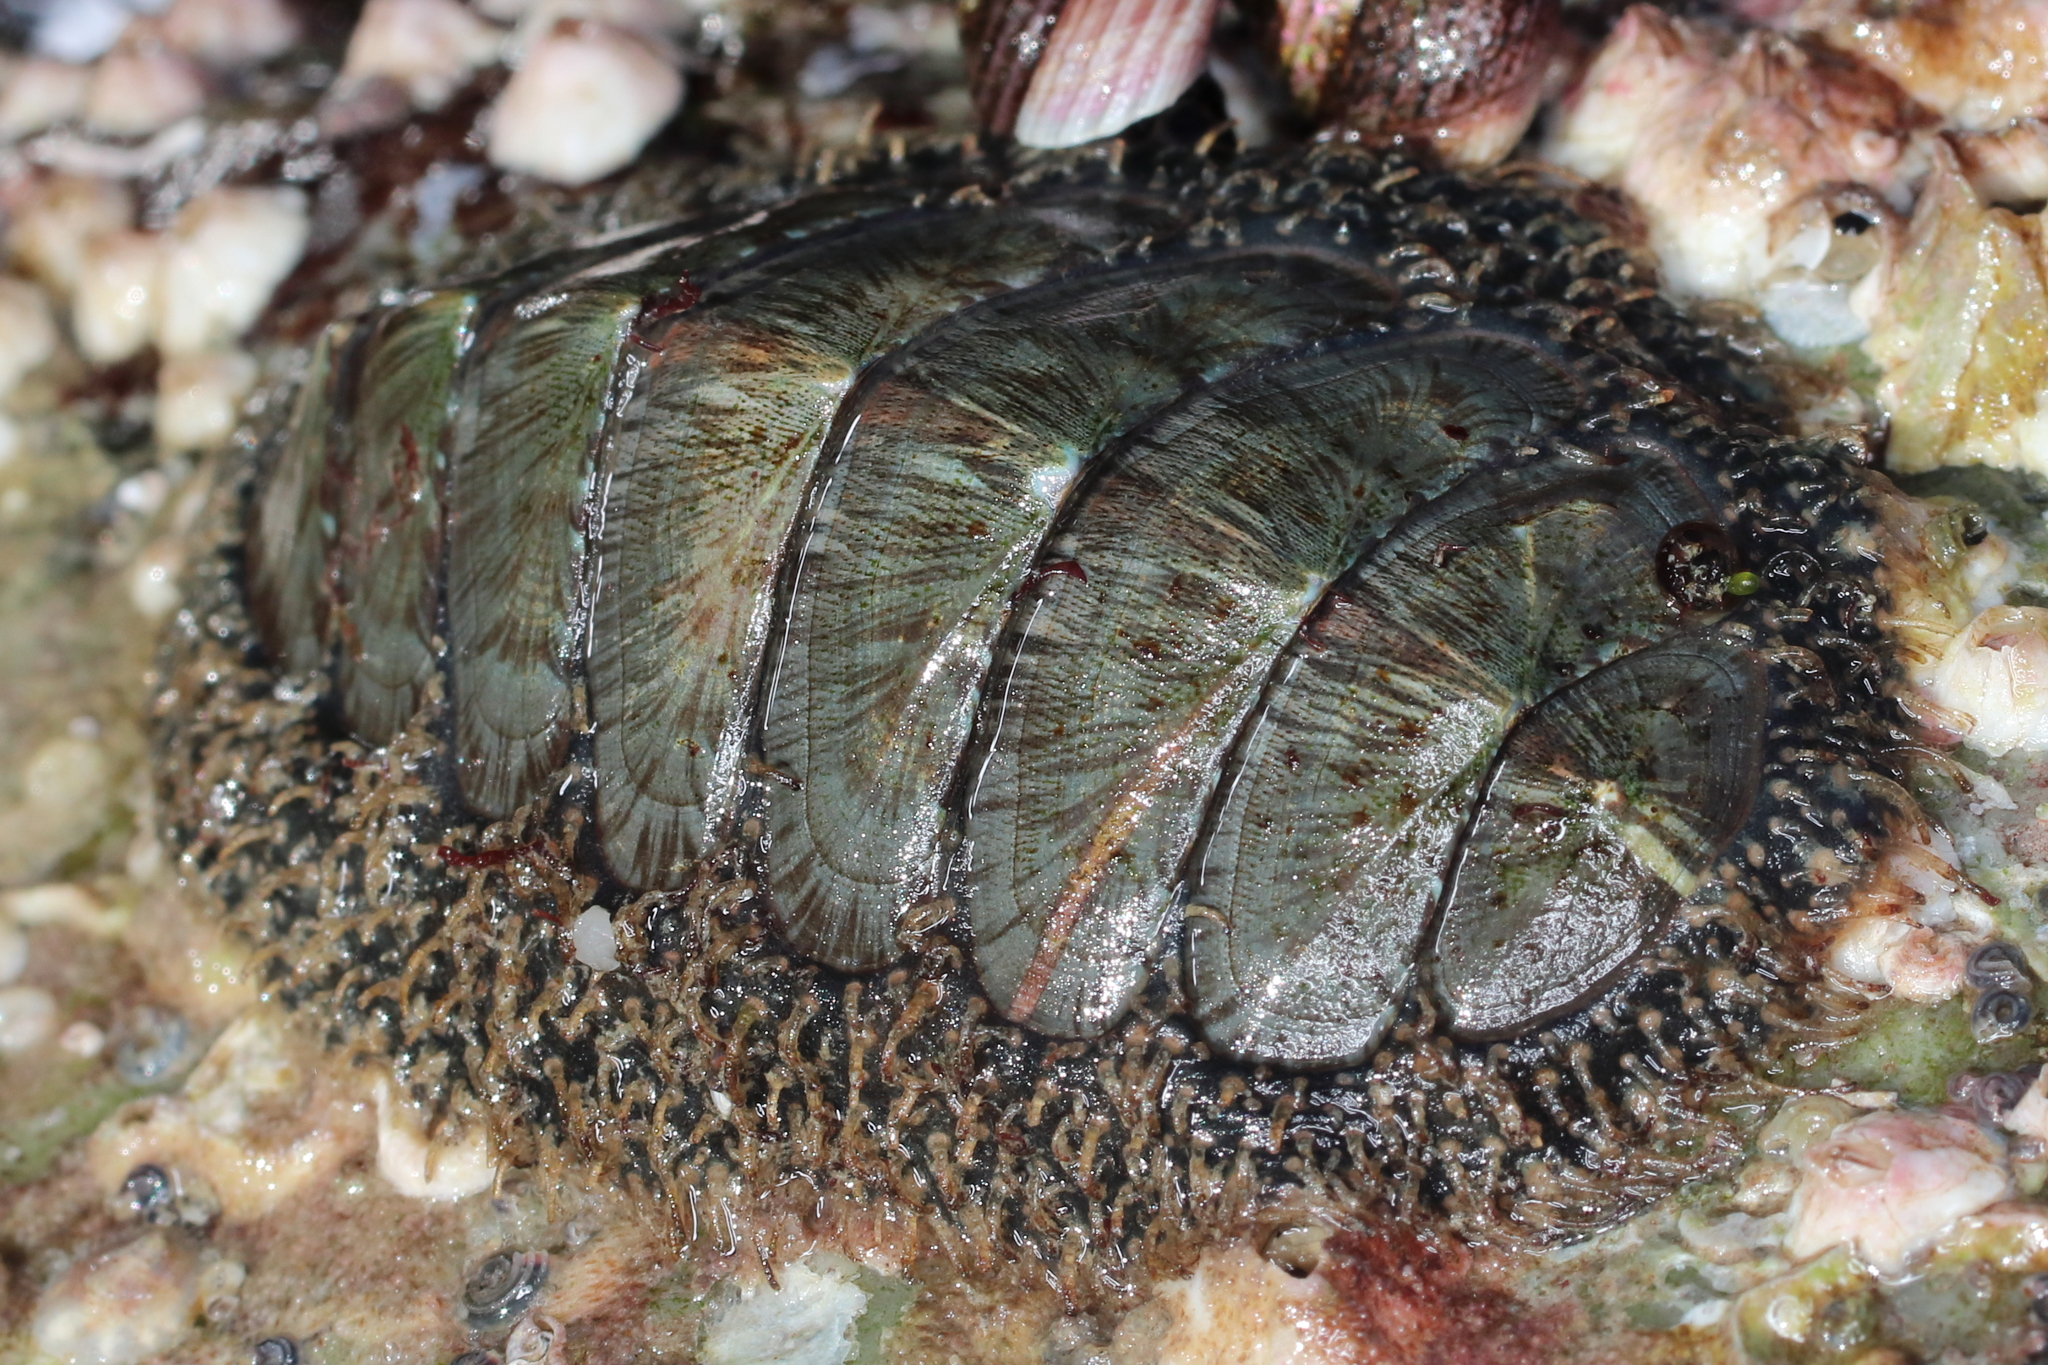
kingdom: Animalia
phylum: Mollusca
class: Polyplacophora
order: Chitonida
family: Mopaliidae
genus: Mopalia
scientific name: Mopalia lignosa
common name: Woody chiton
